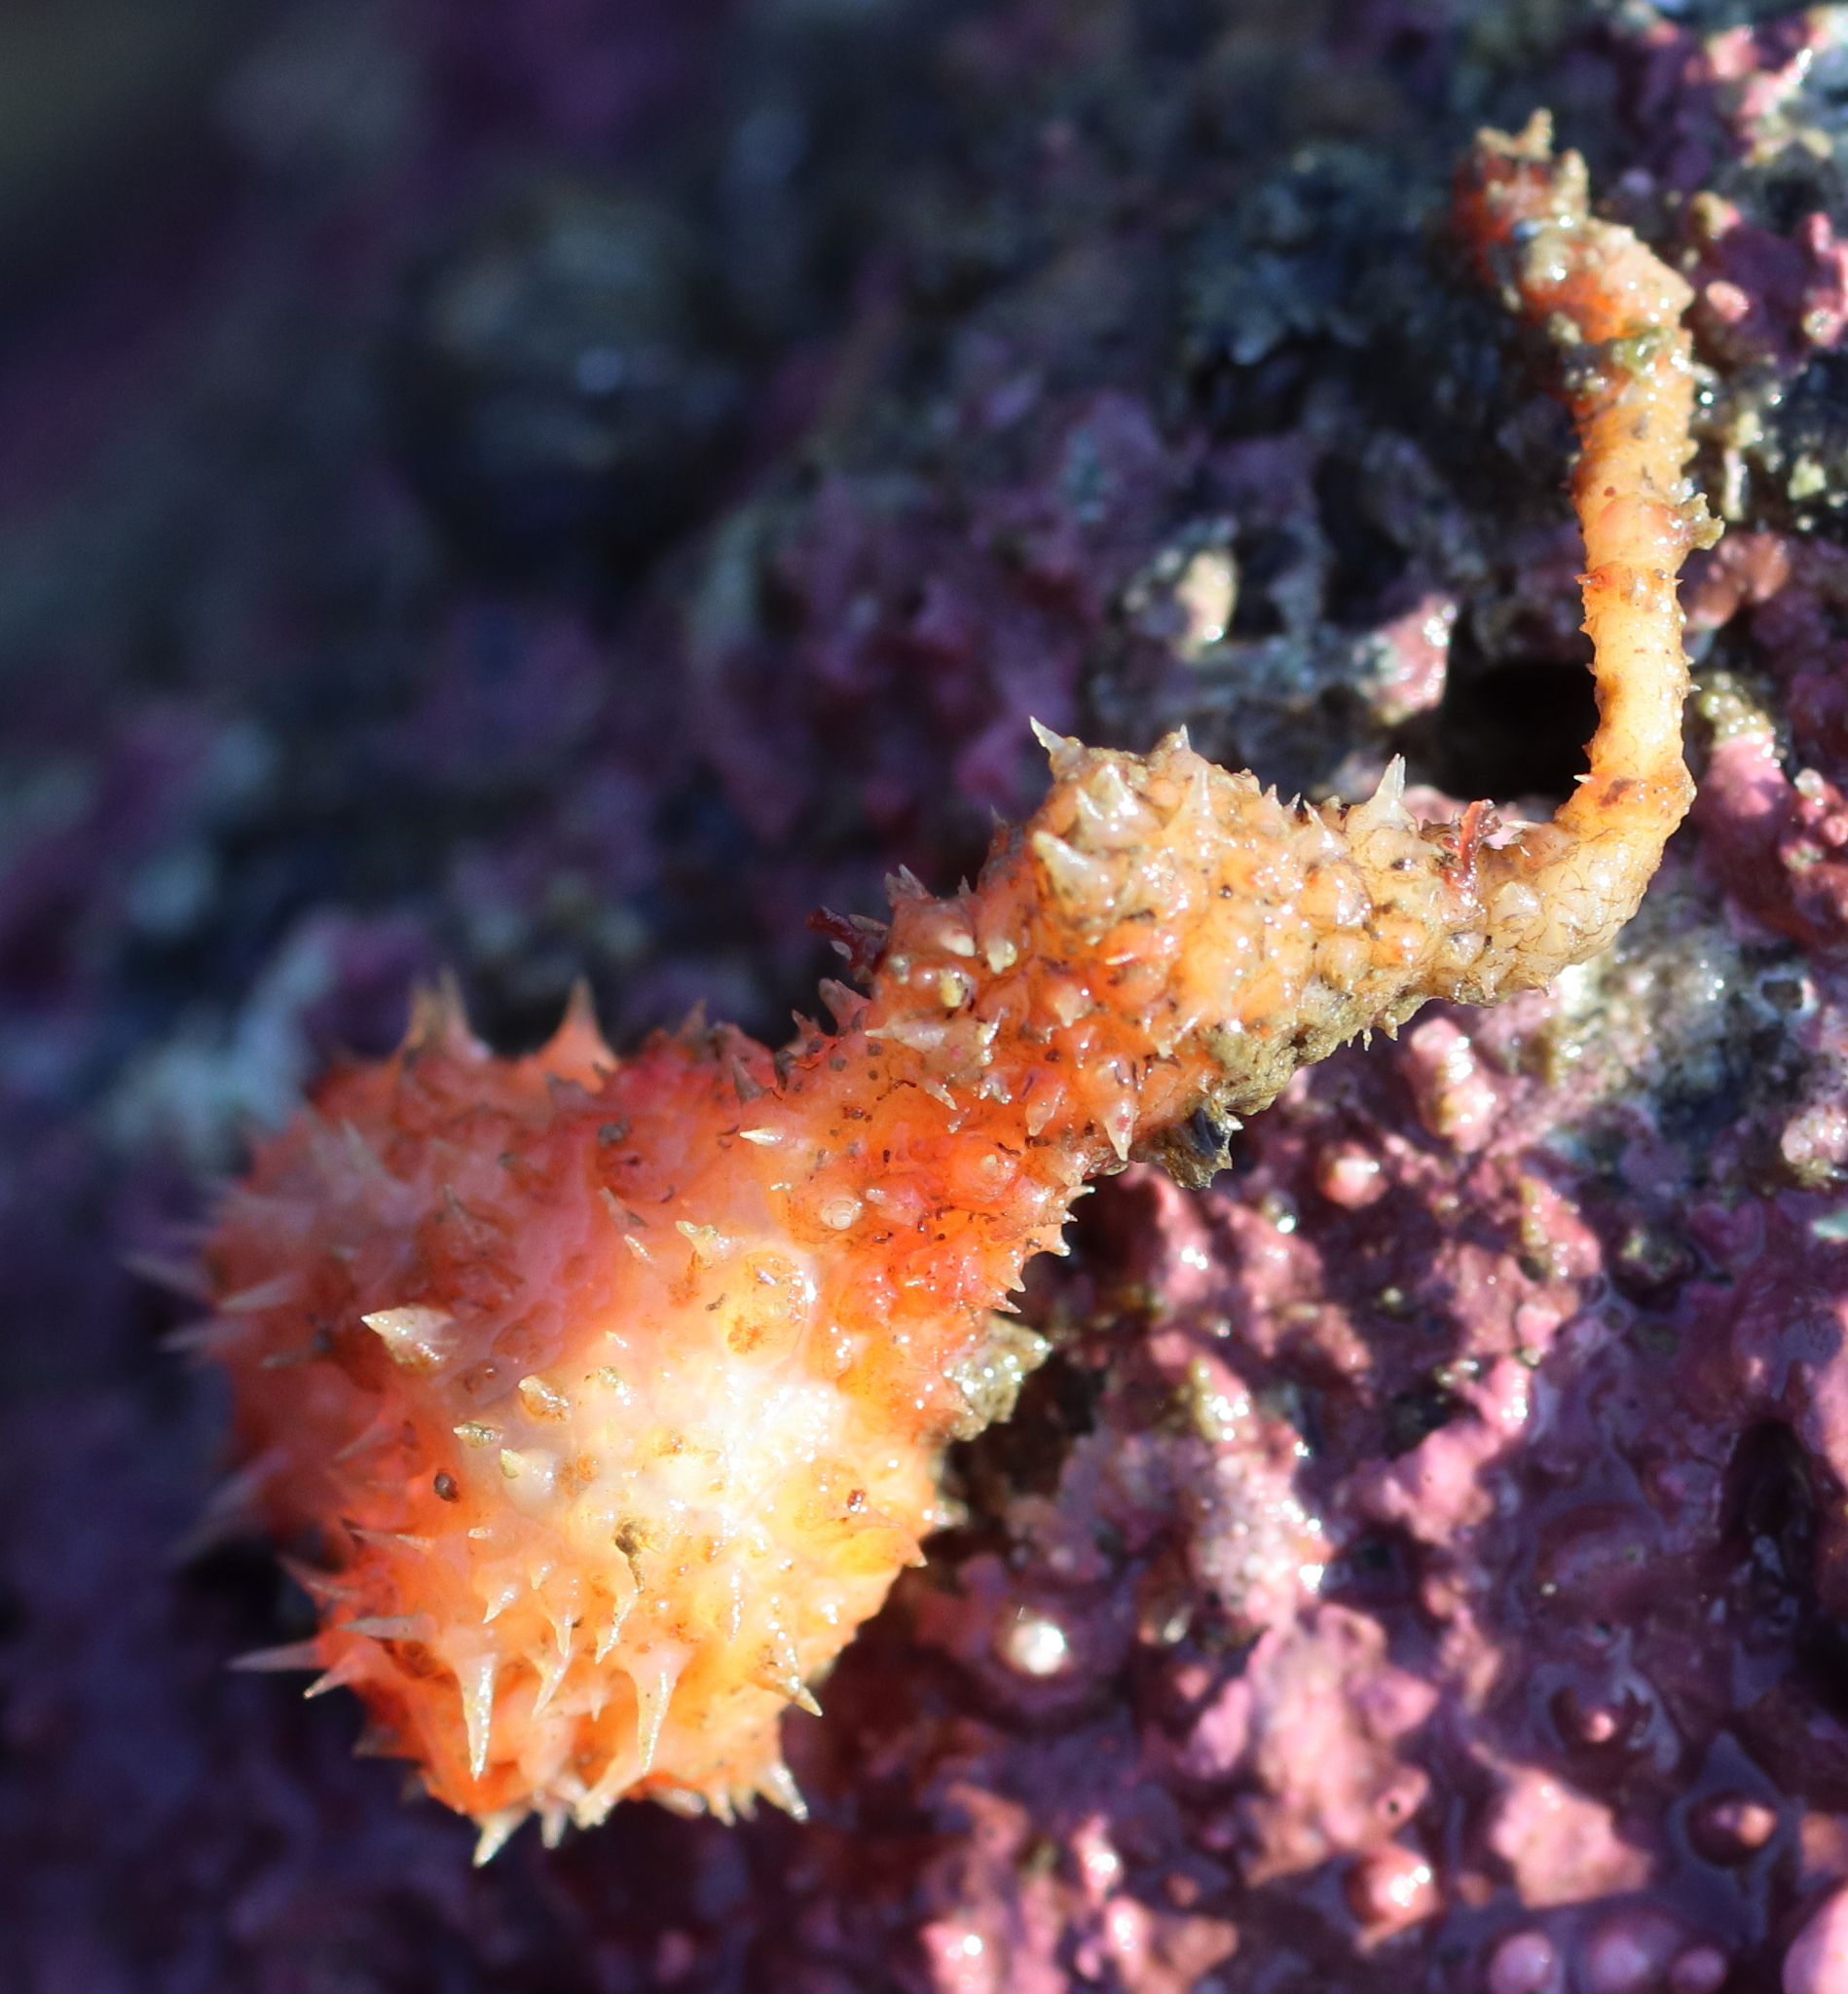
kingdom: Animalia
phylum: Chordata
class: Ascidiacea
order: Stolidobranchia
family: Pyuridae
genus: Boltenia
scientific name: Boltenia villosa
